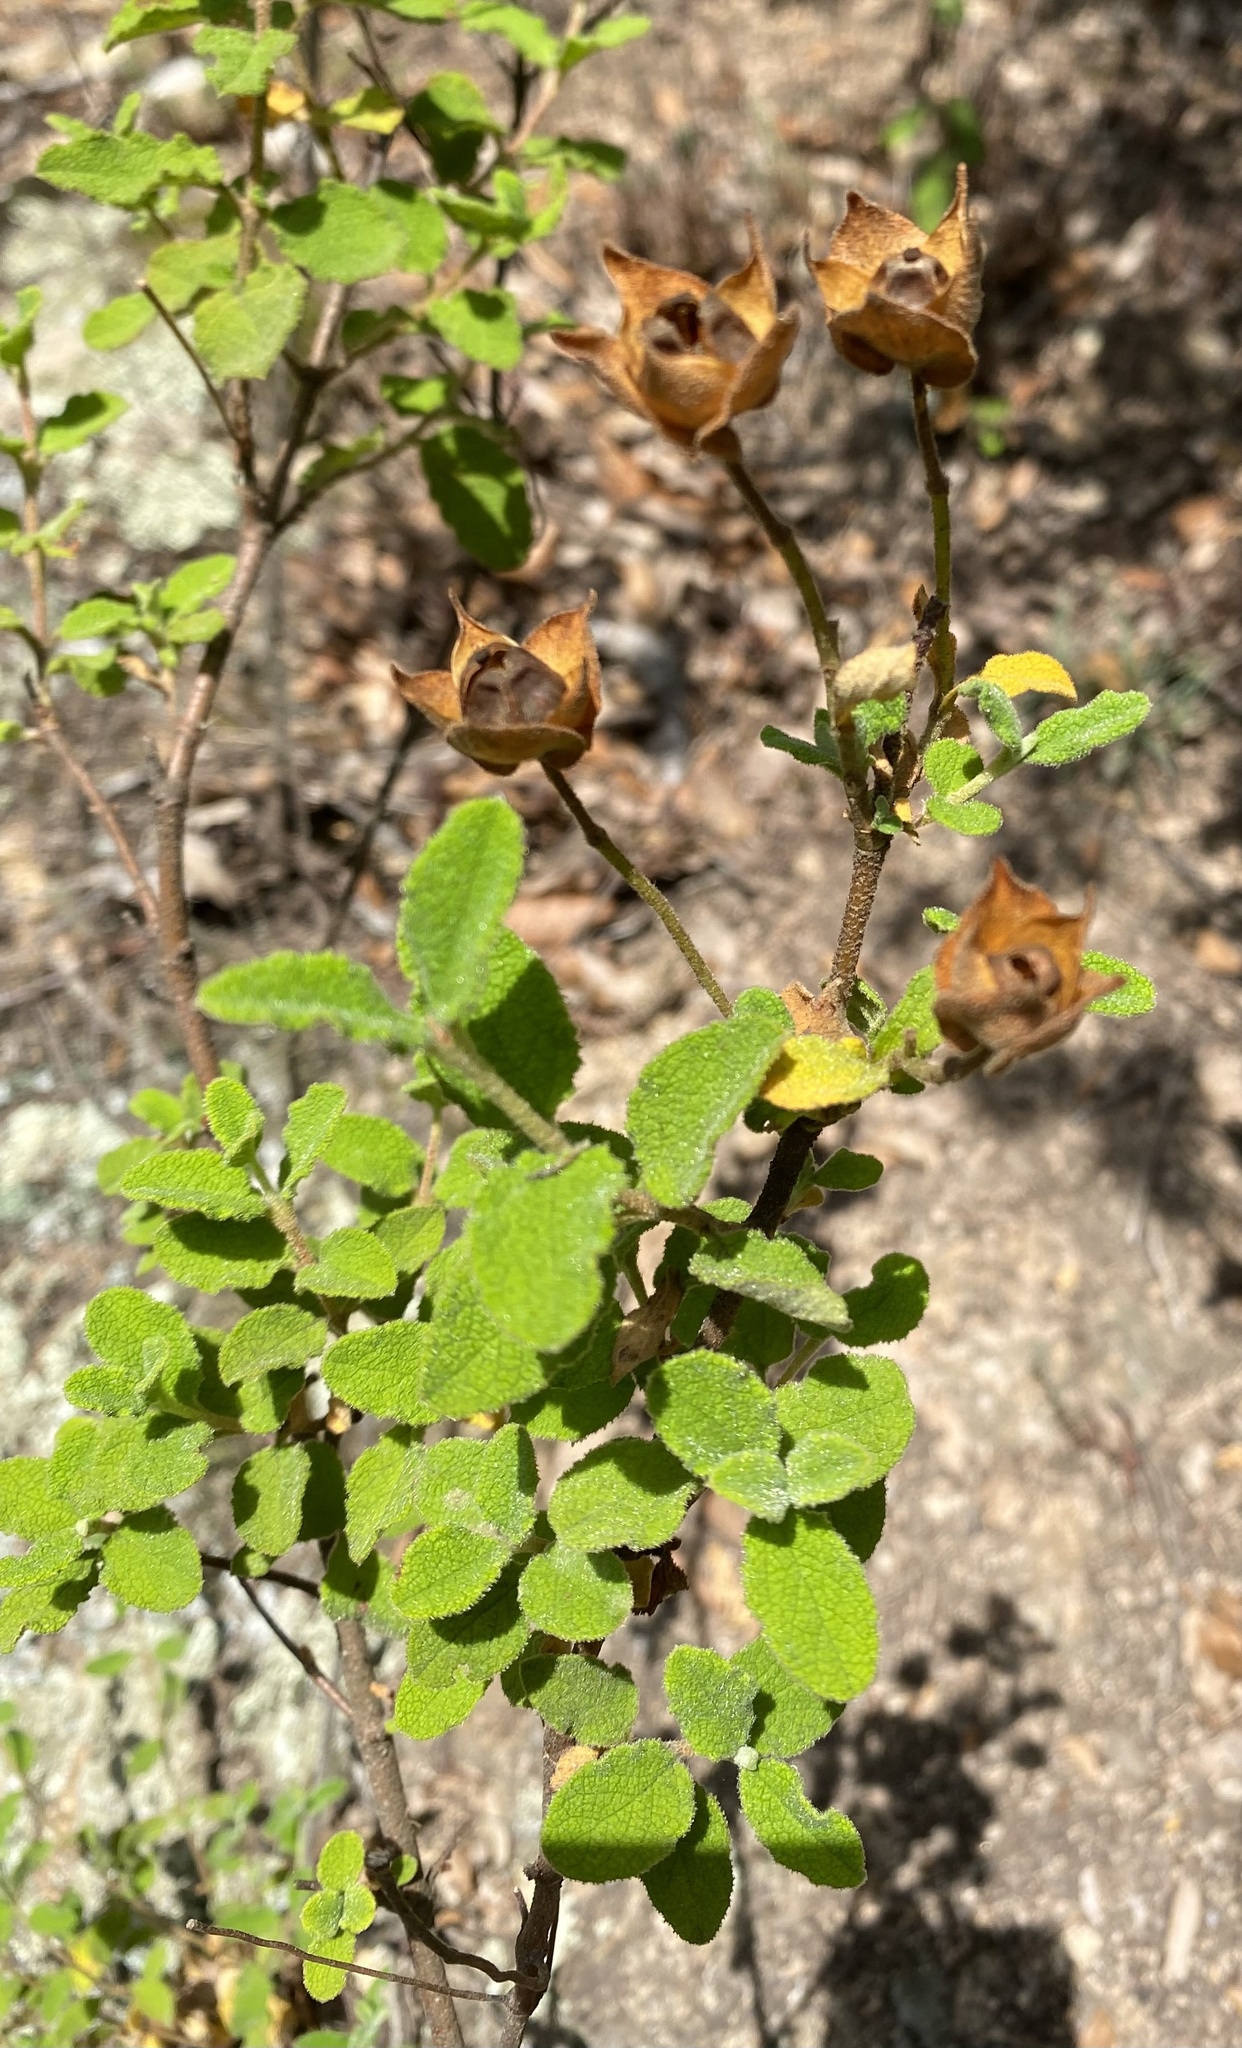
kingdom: Plantae
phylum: Tracheophyta
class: Magnoliopsida
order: Malvales
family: Cistaceae
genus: Cistus
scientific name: Cistus salviifolius
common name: Salvia cistus
